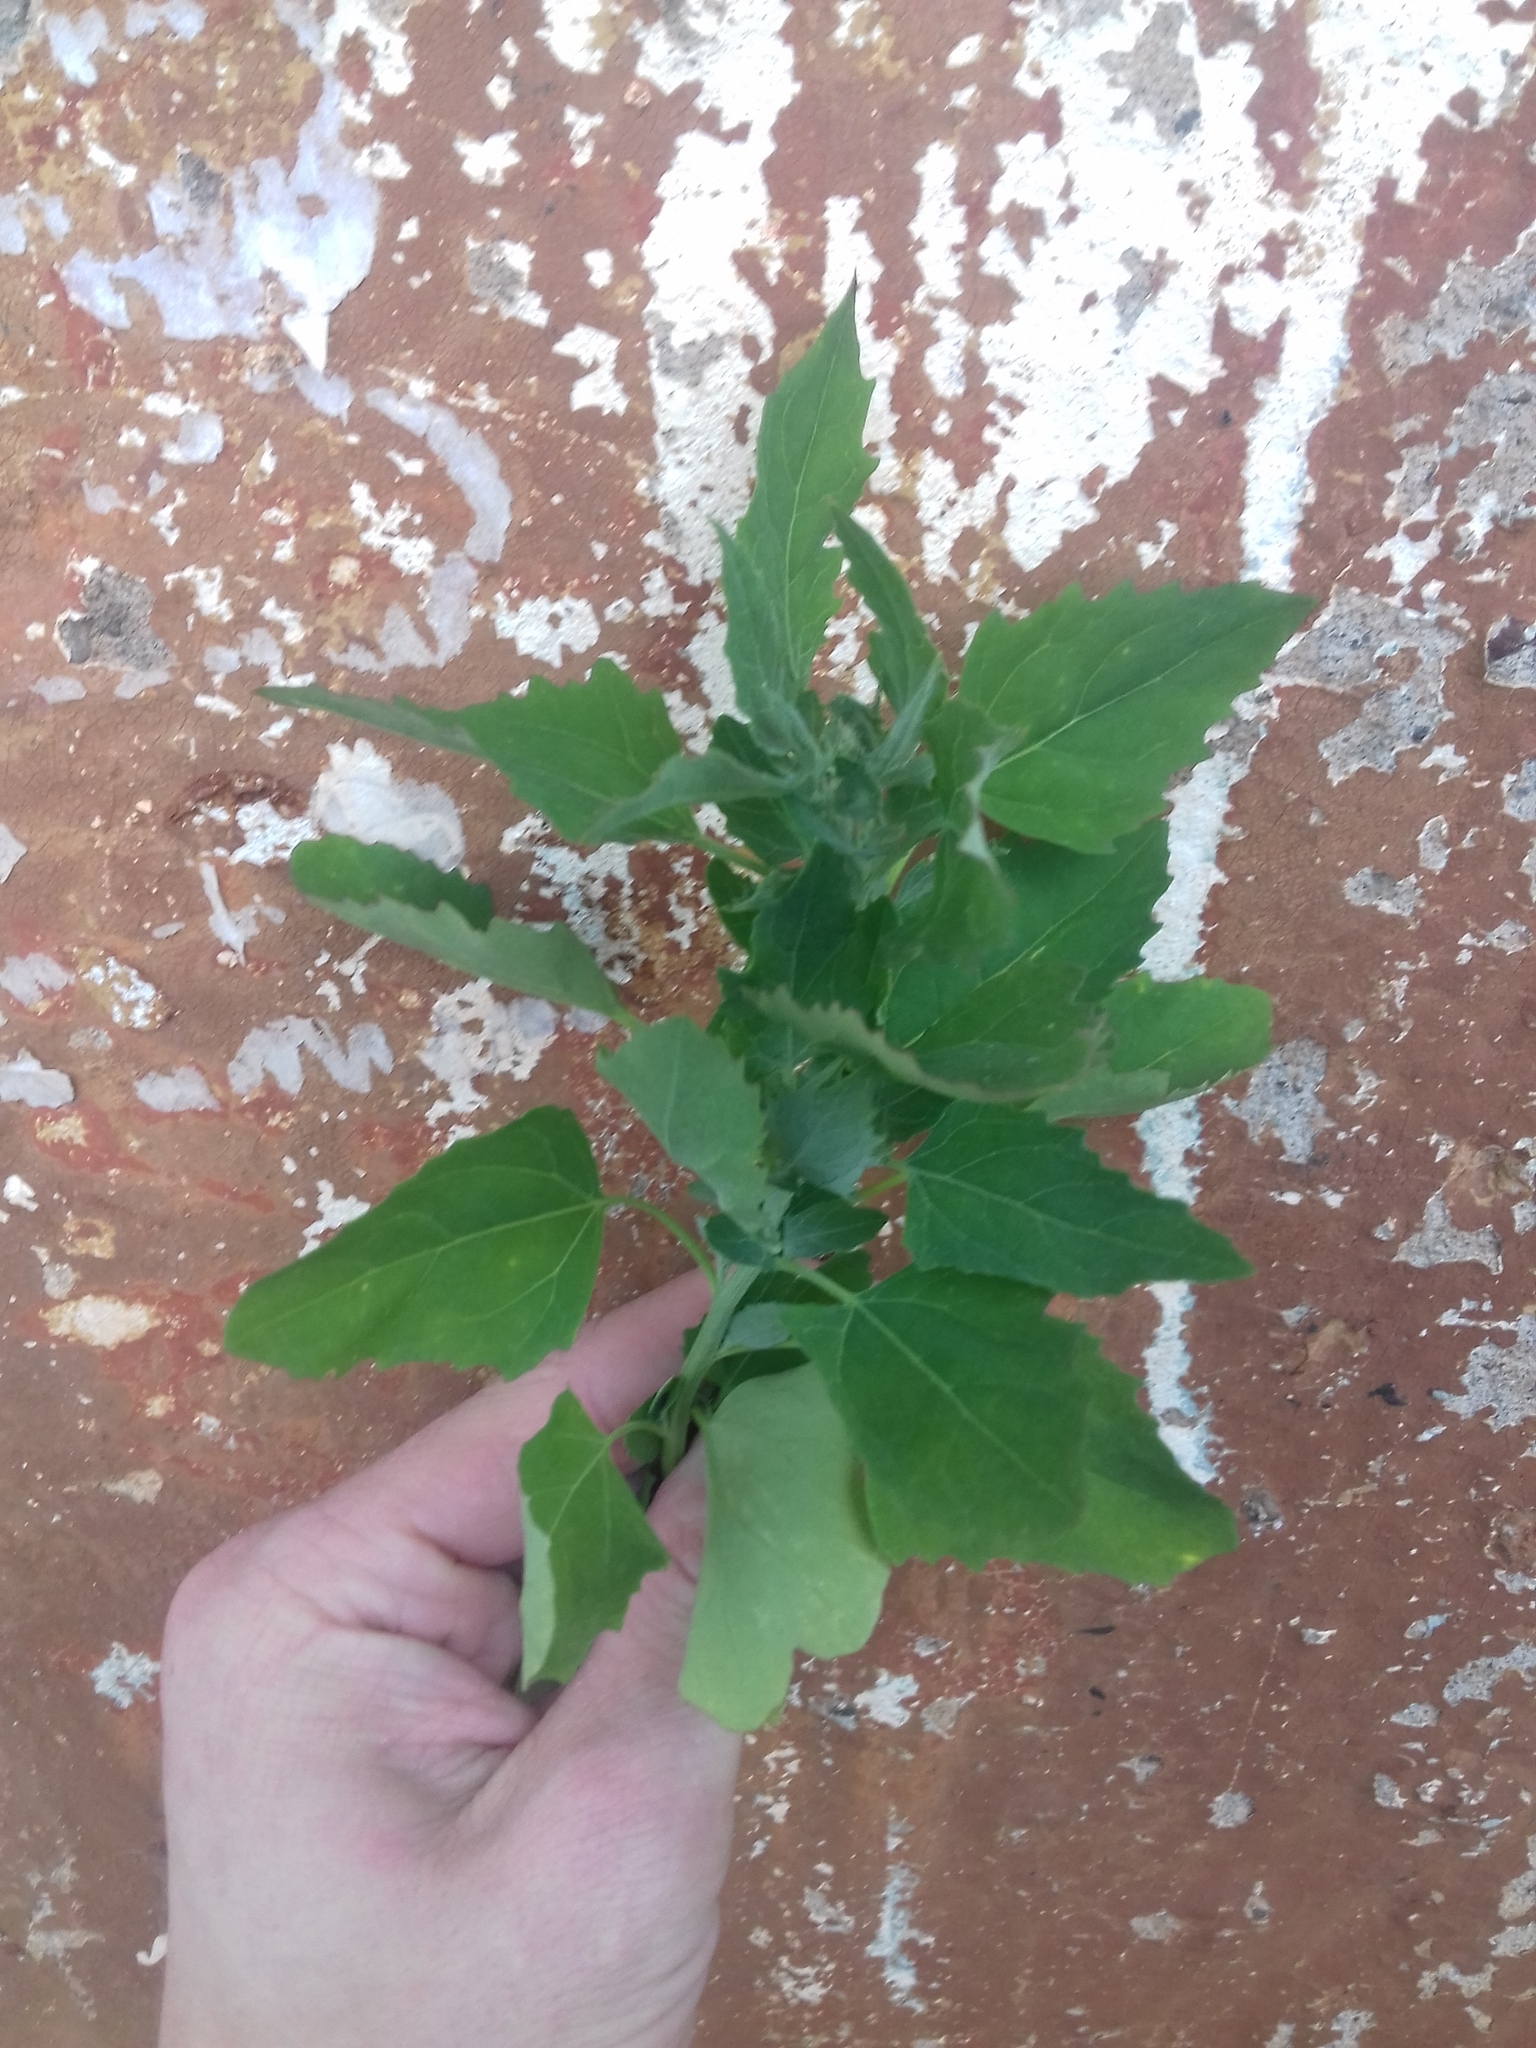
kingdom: Plantae
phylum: Tracheophyta
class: Magnoliopsida
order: Caryophyllales
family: Amaranthaceae
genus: Chenopodium
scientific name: Chenopodium album
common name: Fat-hen
